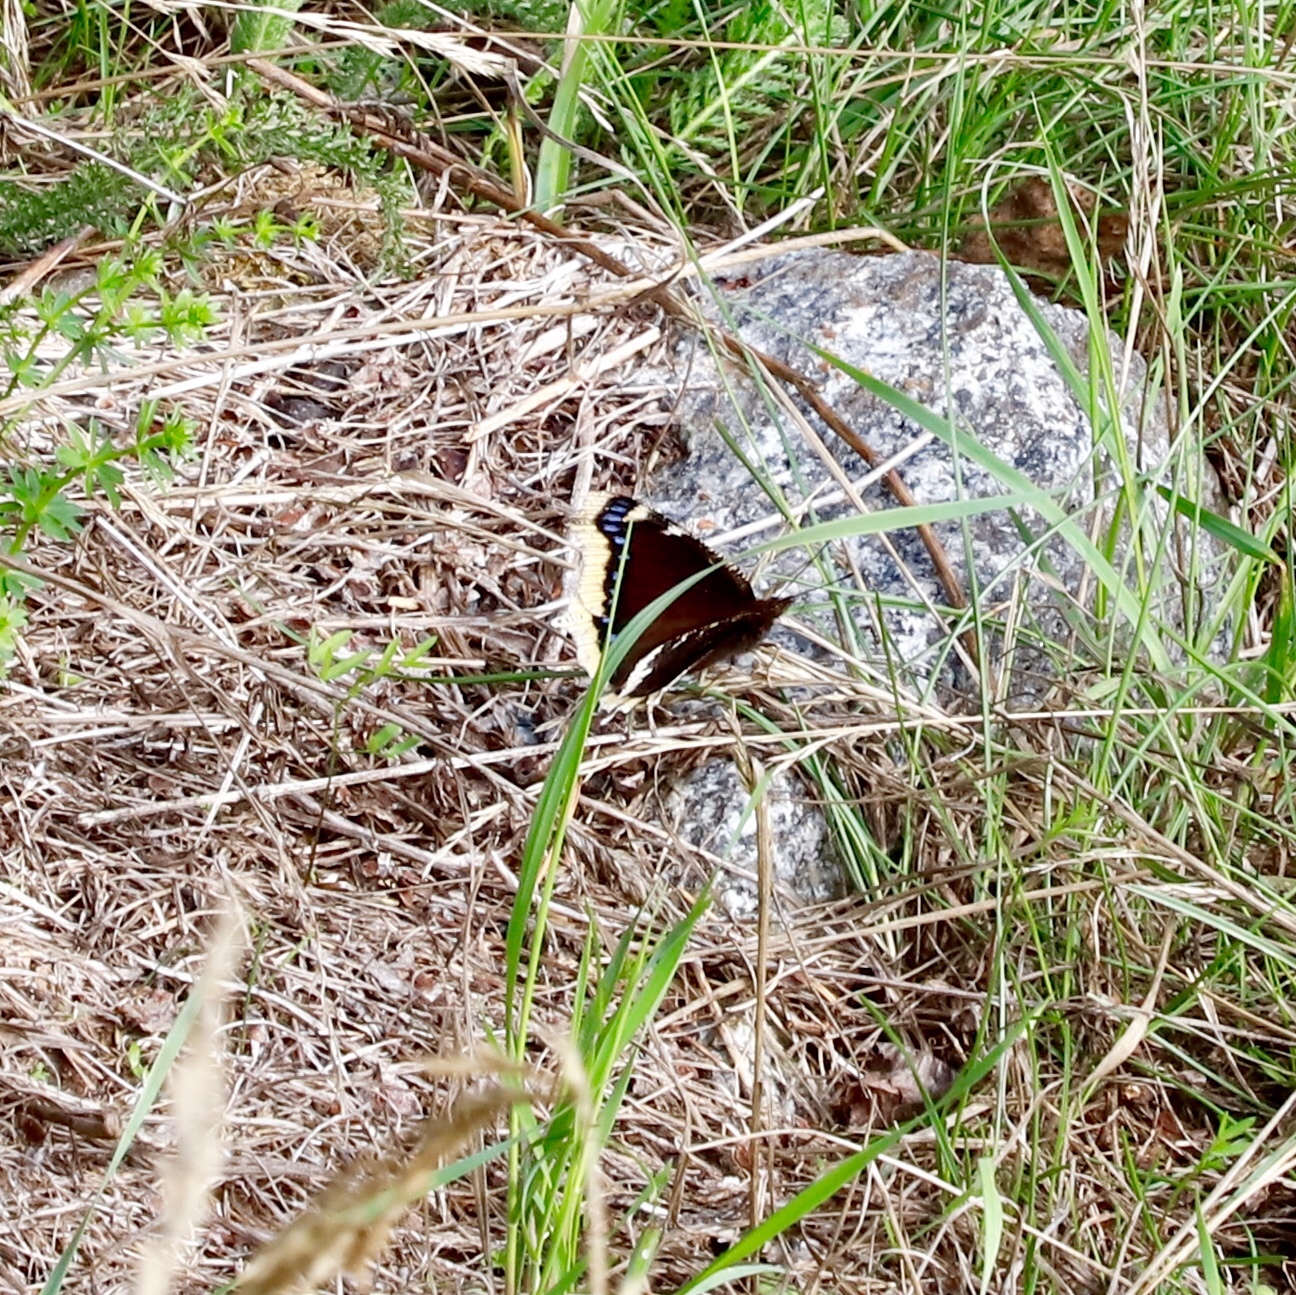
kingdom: Animalia
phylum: Arthropoda
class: Insecta
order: Lepidoptera
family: Nymphalidae
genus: Nymphalis
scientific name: Nymphalis antiopa
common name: Camberwell beauty
